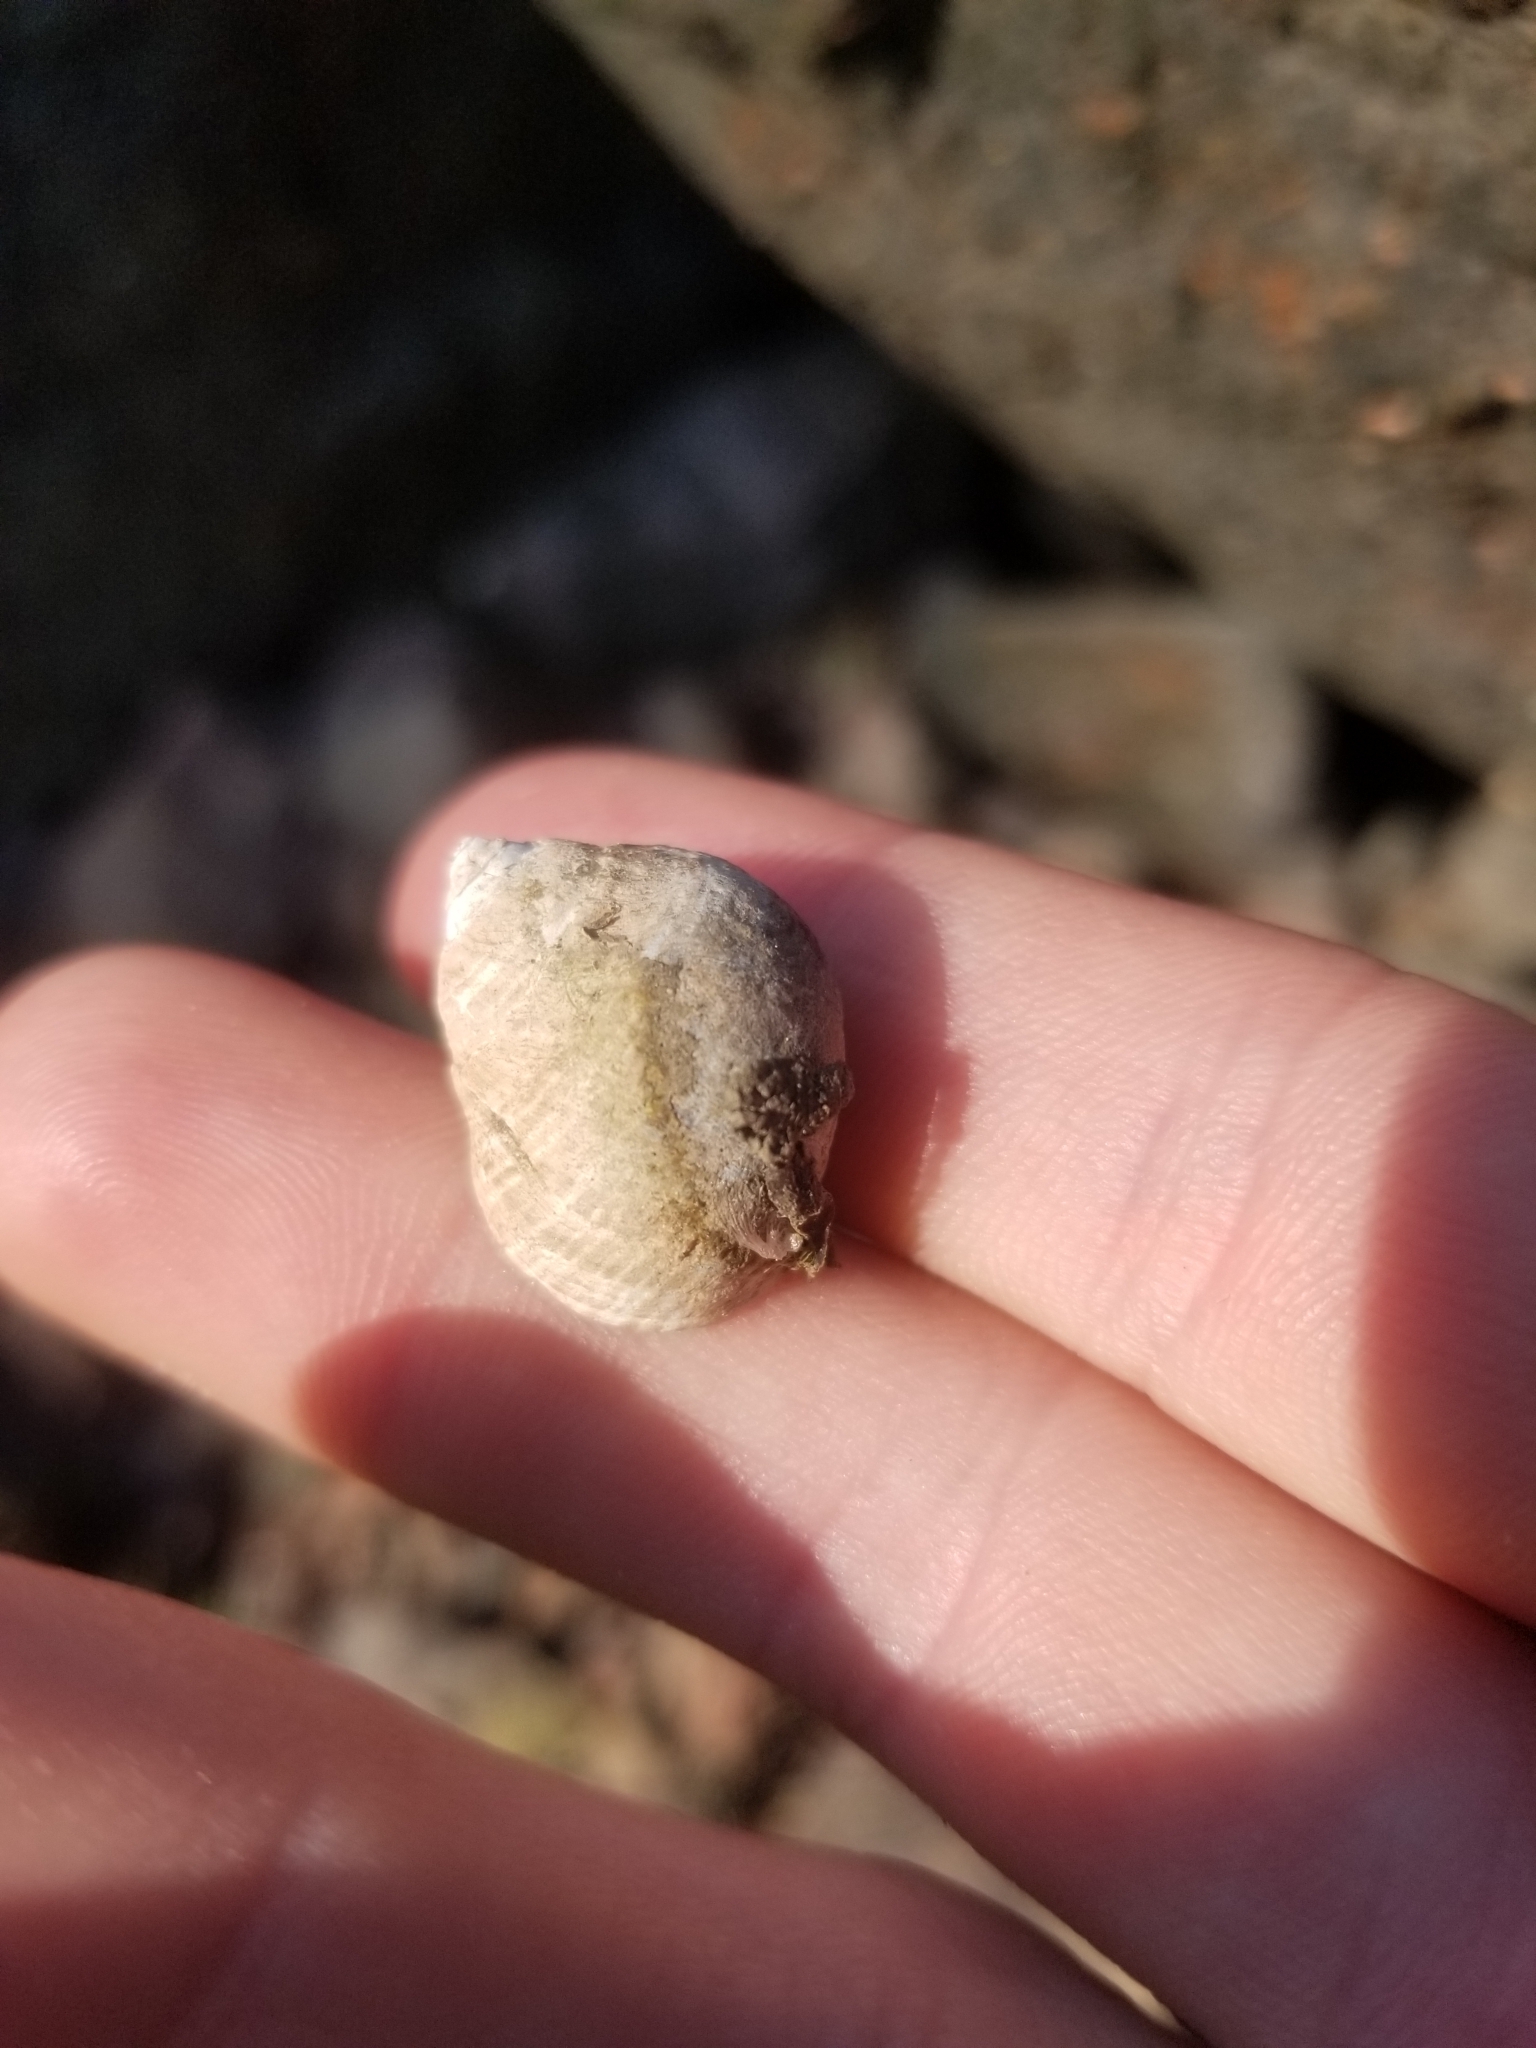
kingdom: Animalia
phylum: Mollusca
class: Gastropoda
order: Littorinimorpha
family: Littorinidae
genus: Littorina
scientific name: Littorina littorea
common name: Common periwinkle
